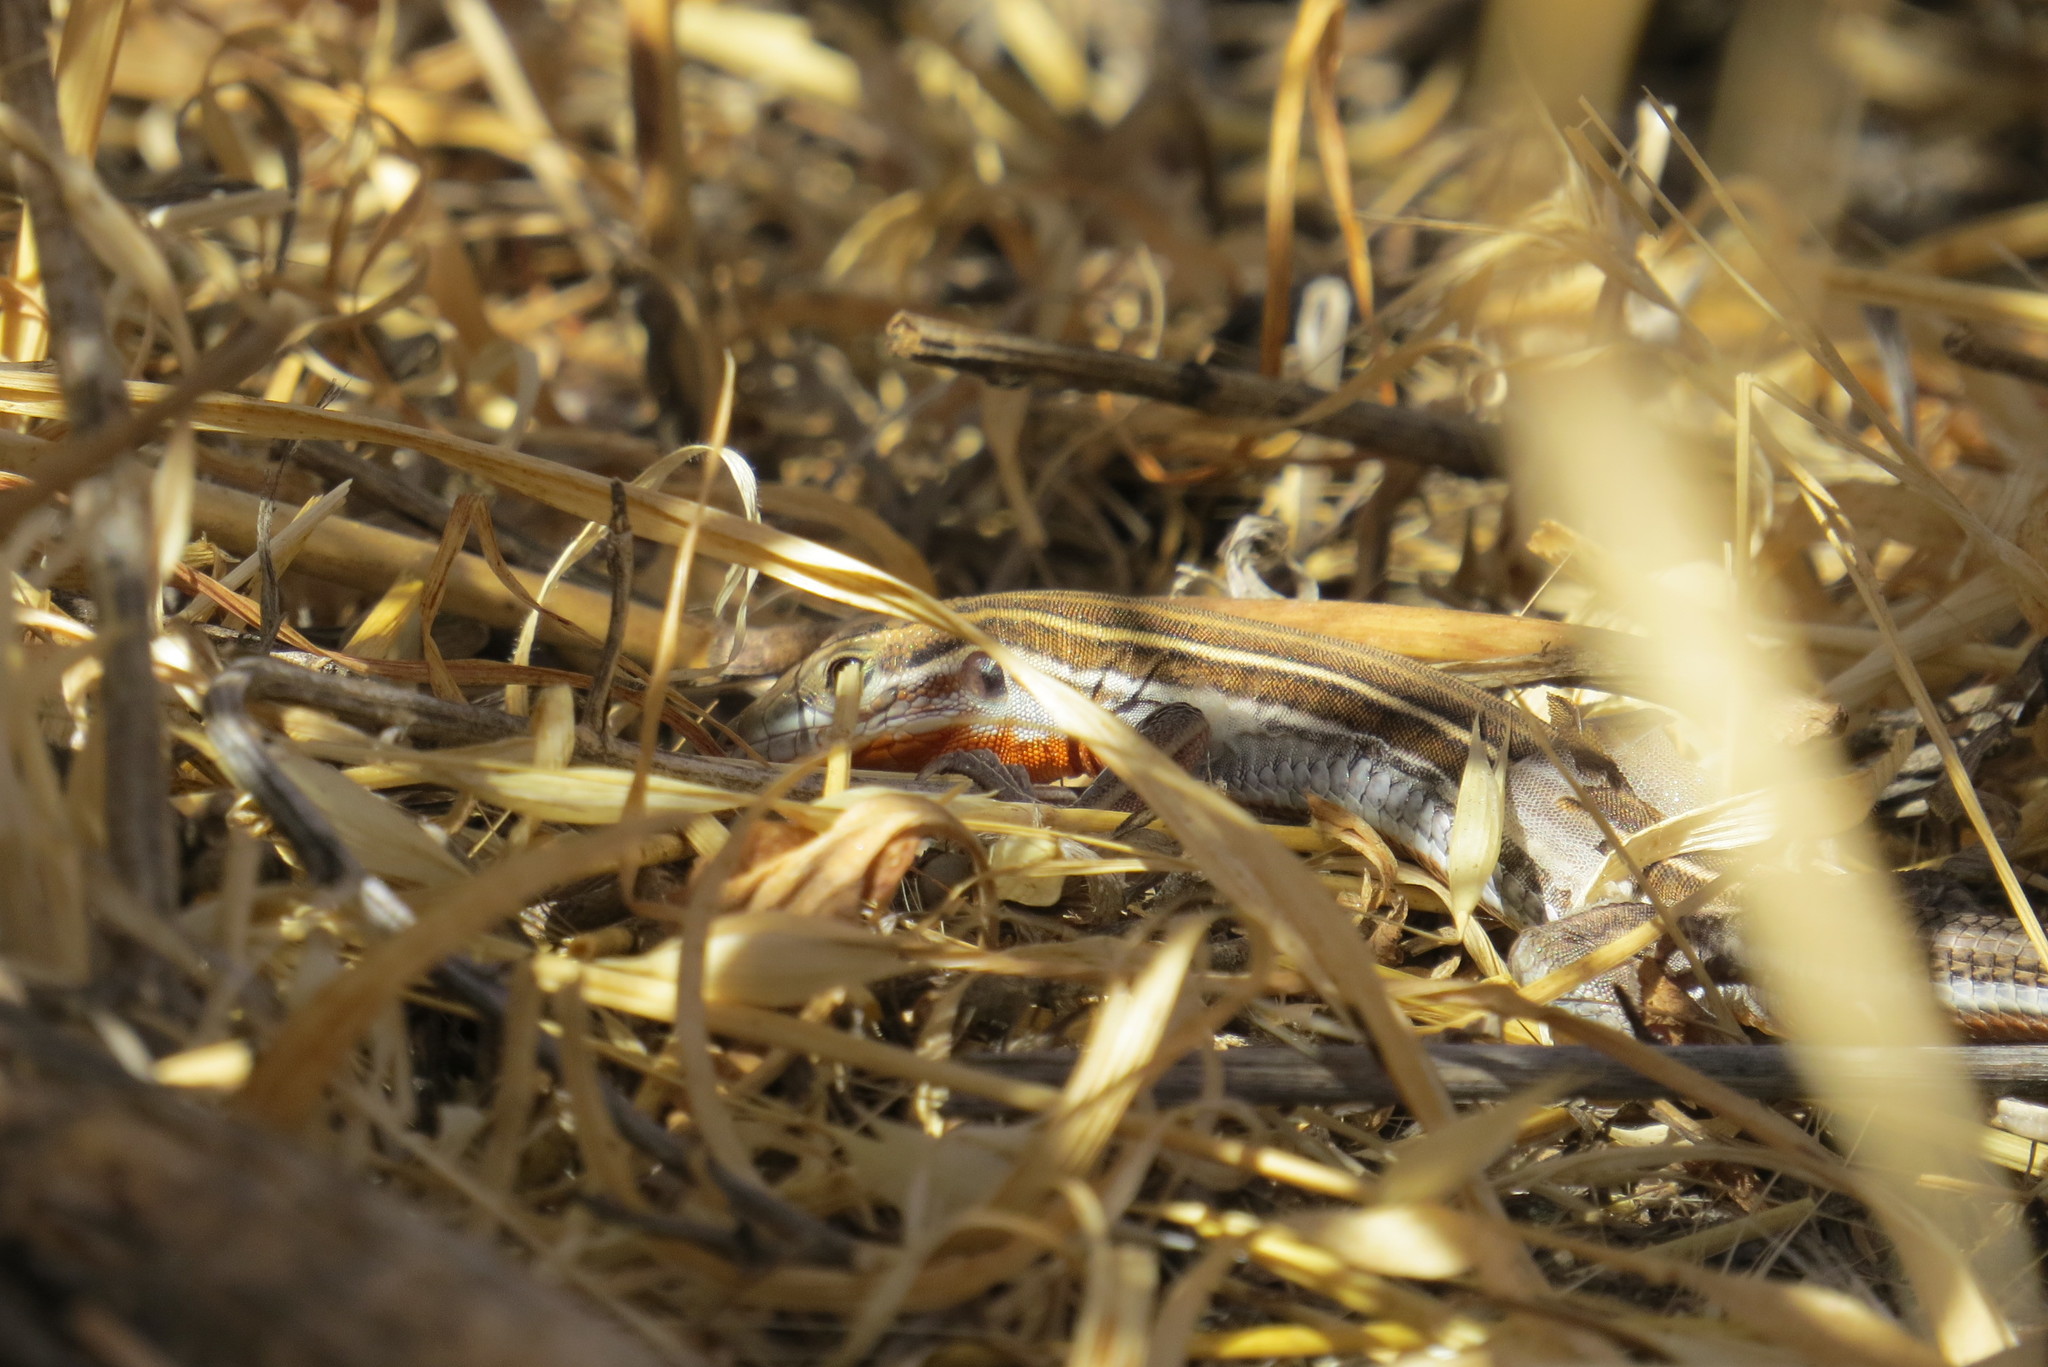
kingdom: Animalia
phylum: Chordata
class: Squamata
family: Teiidae
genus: Aspidoscelis
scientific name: Aspidoscelis hyperythrus
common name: Orange-throated race-runner
